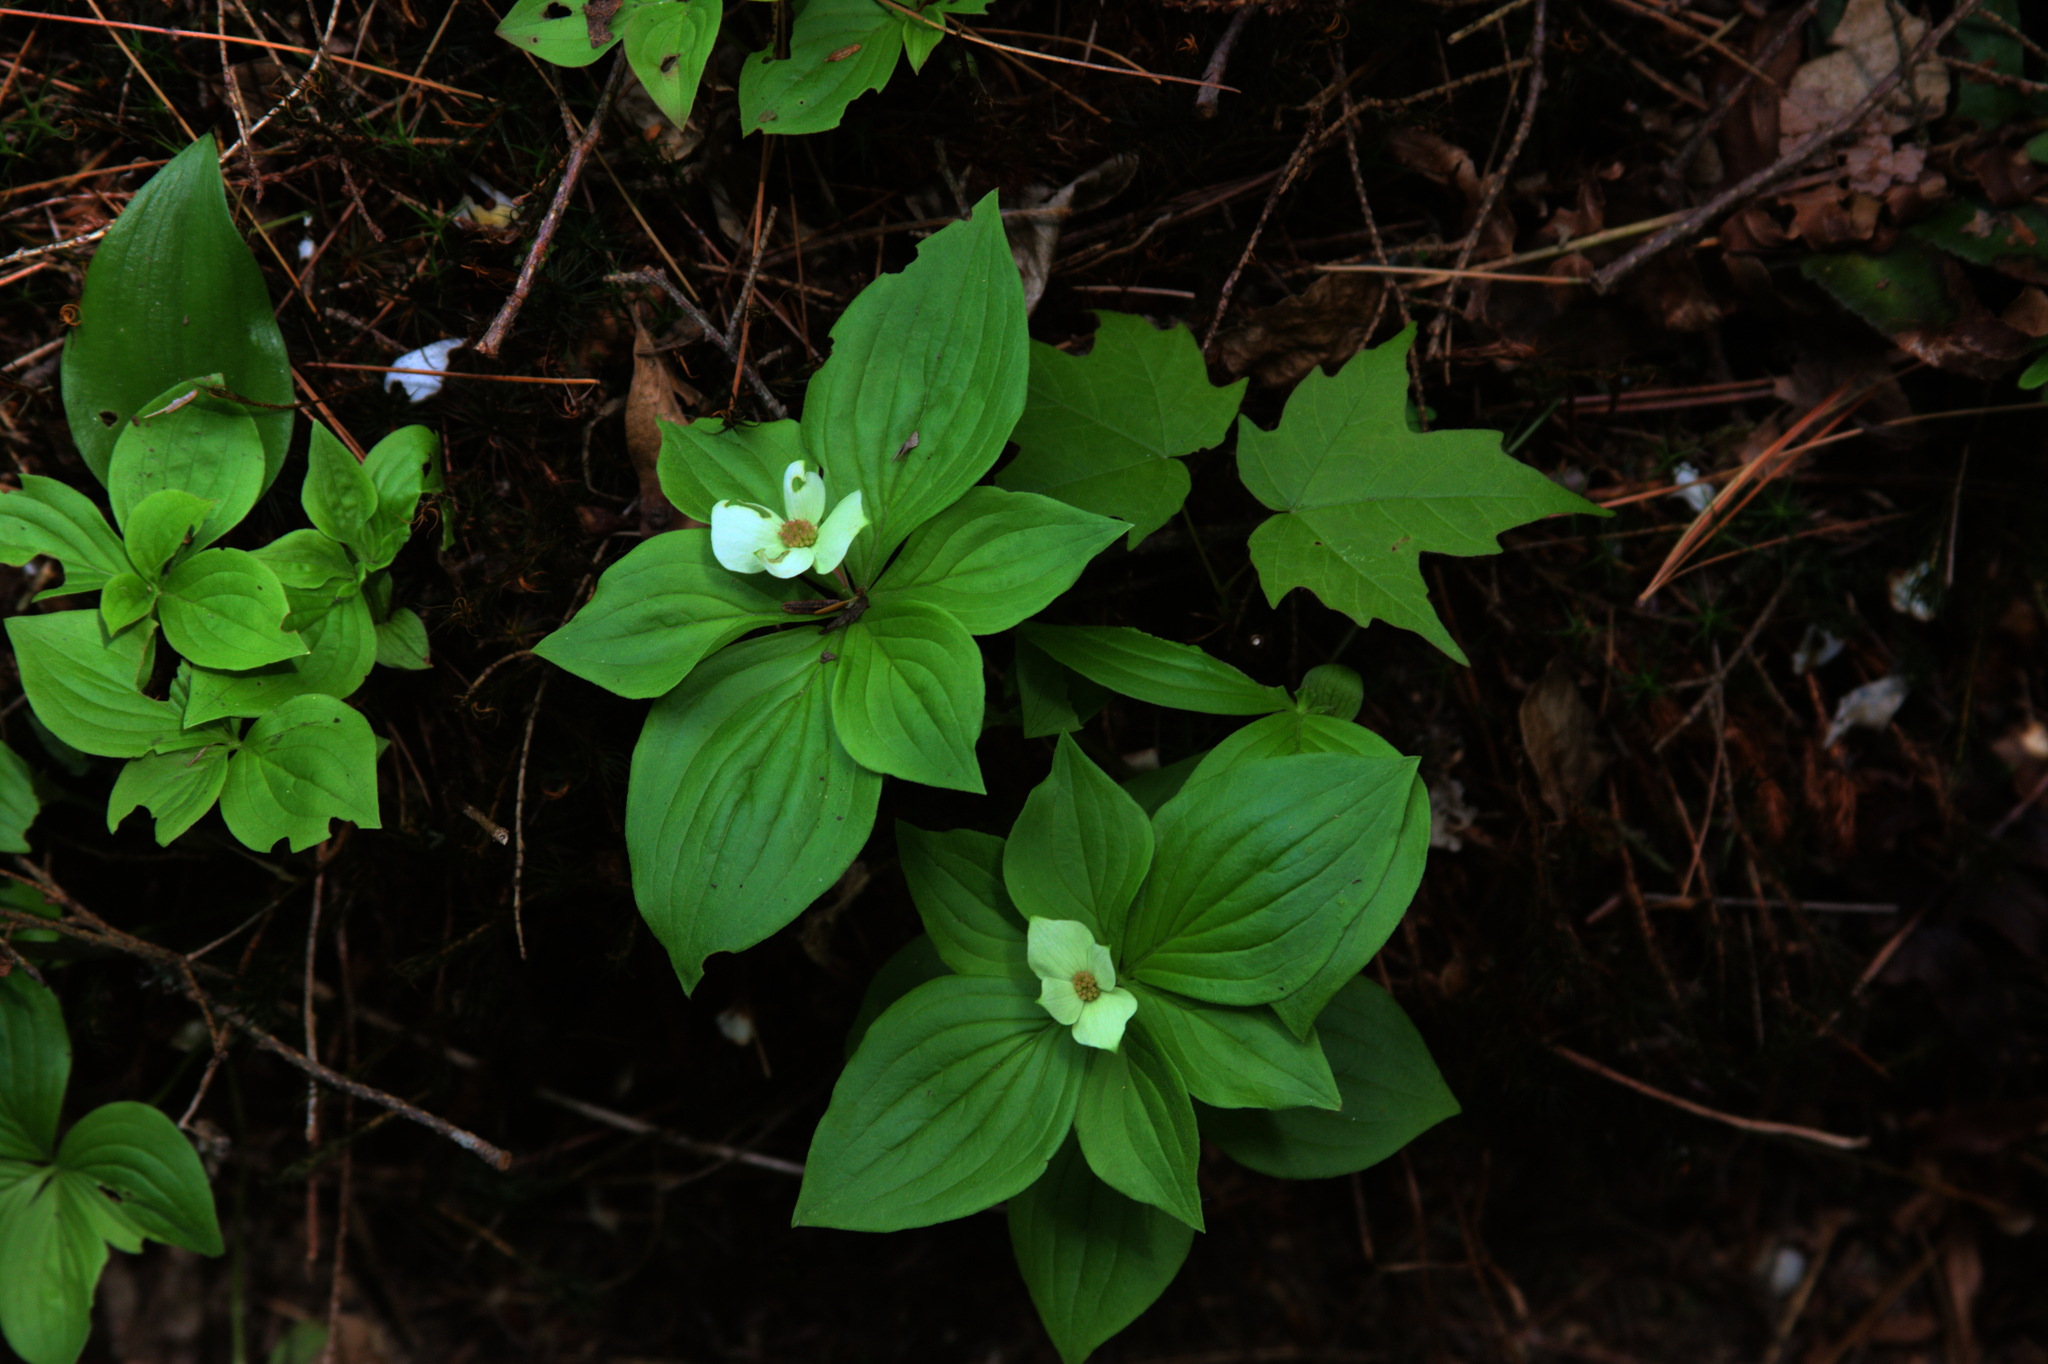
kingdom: Plantae
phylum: Tracheophyta
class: Magnoliopsida
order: Cornales
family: Cornaceae
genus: Cornus
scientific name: Cornus canadensis
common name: Creeping dogwood
